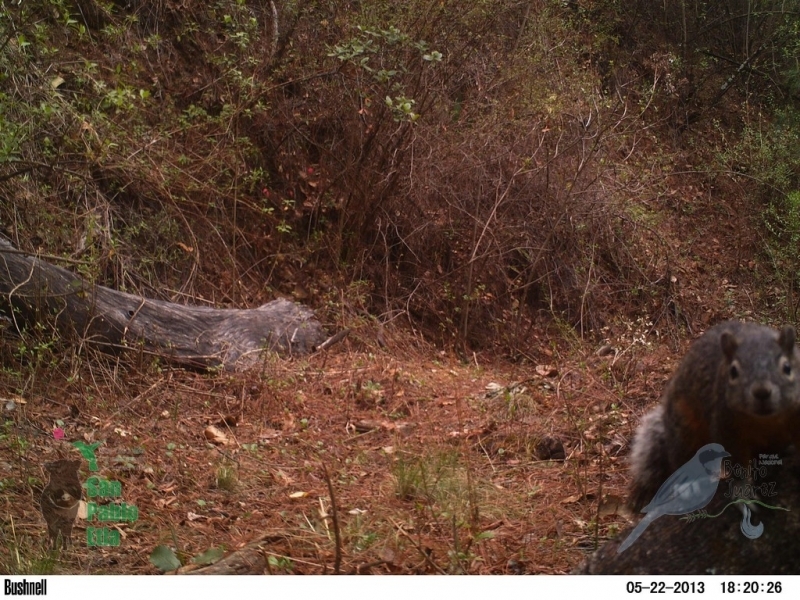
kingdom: Animalia
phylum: Chordata
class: Mammalia
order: Rodentia
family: Sciuridae
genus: Sciurus
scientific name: Sciurus aureogaster
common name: Red-bellied squirrel
